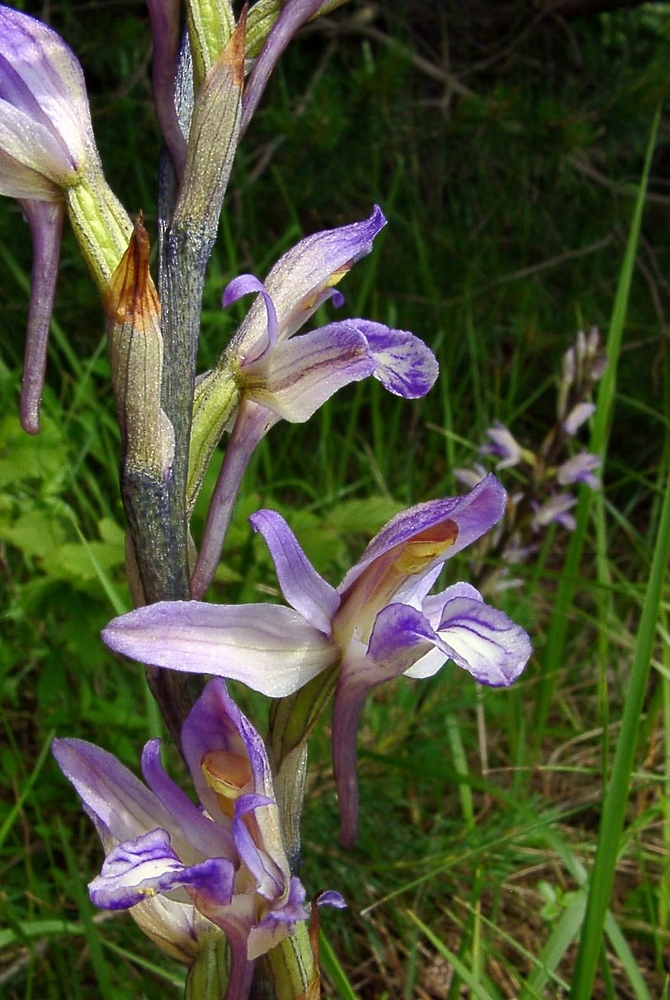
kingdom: Plantae
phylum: Tracheophyta
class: Liliopsida
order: Asparagales
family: Orchidaceae
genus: Limodorum
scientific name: Limodorum abortivum
